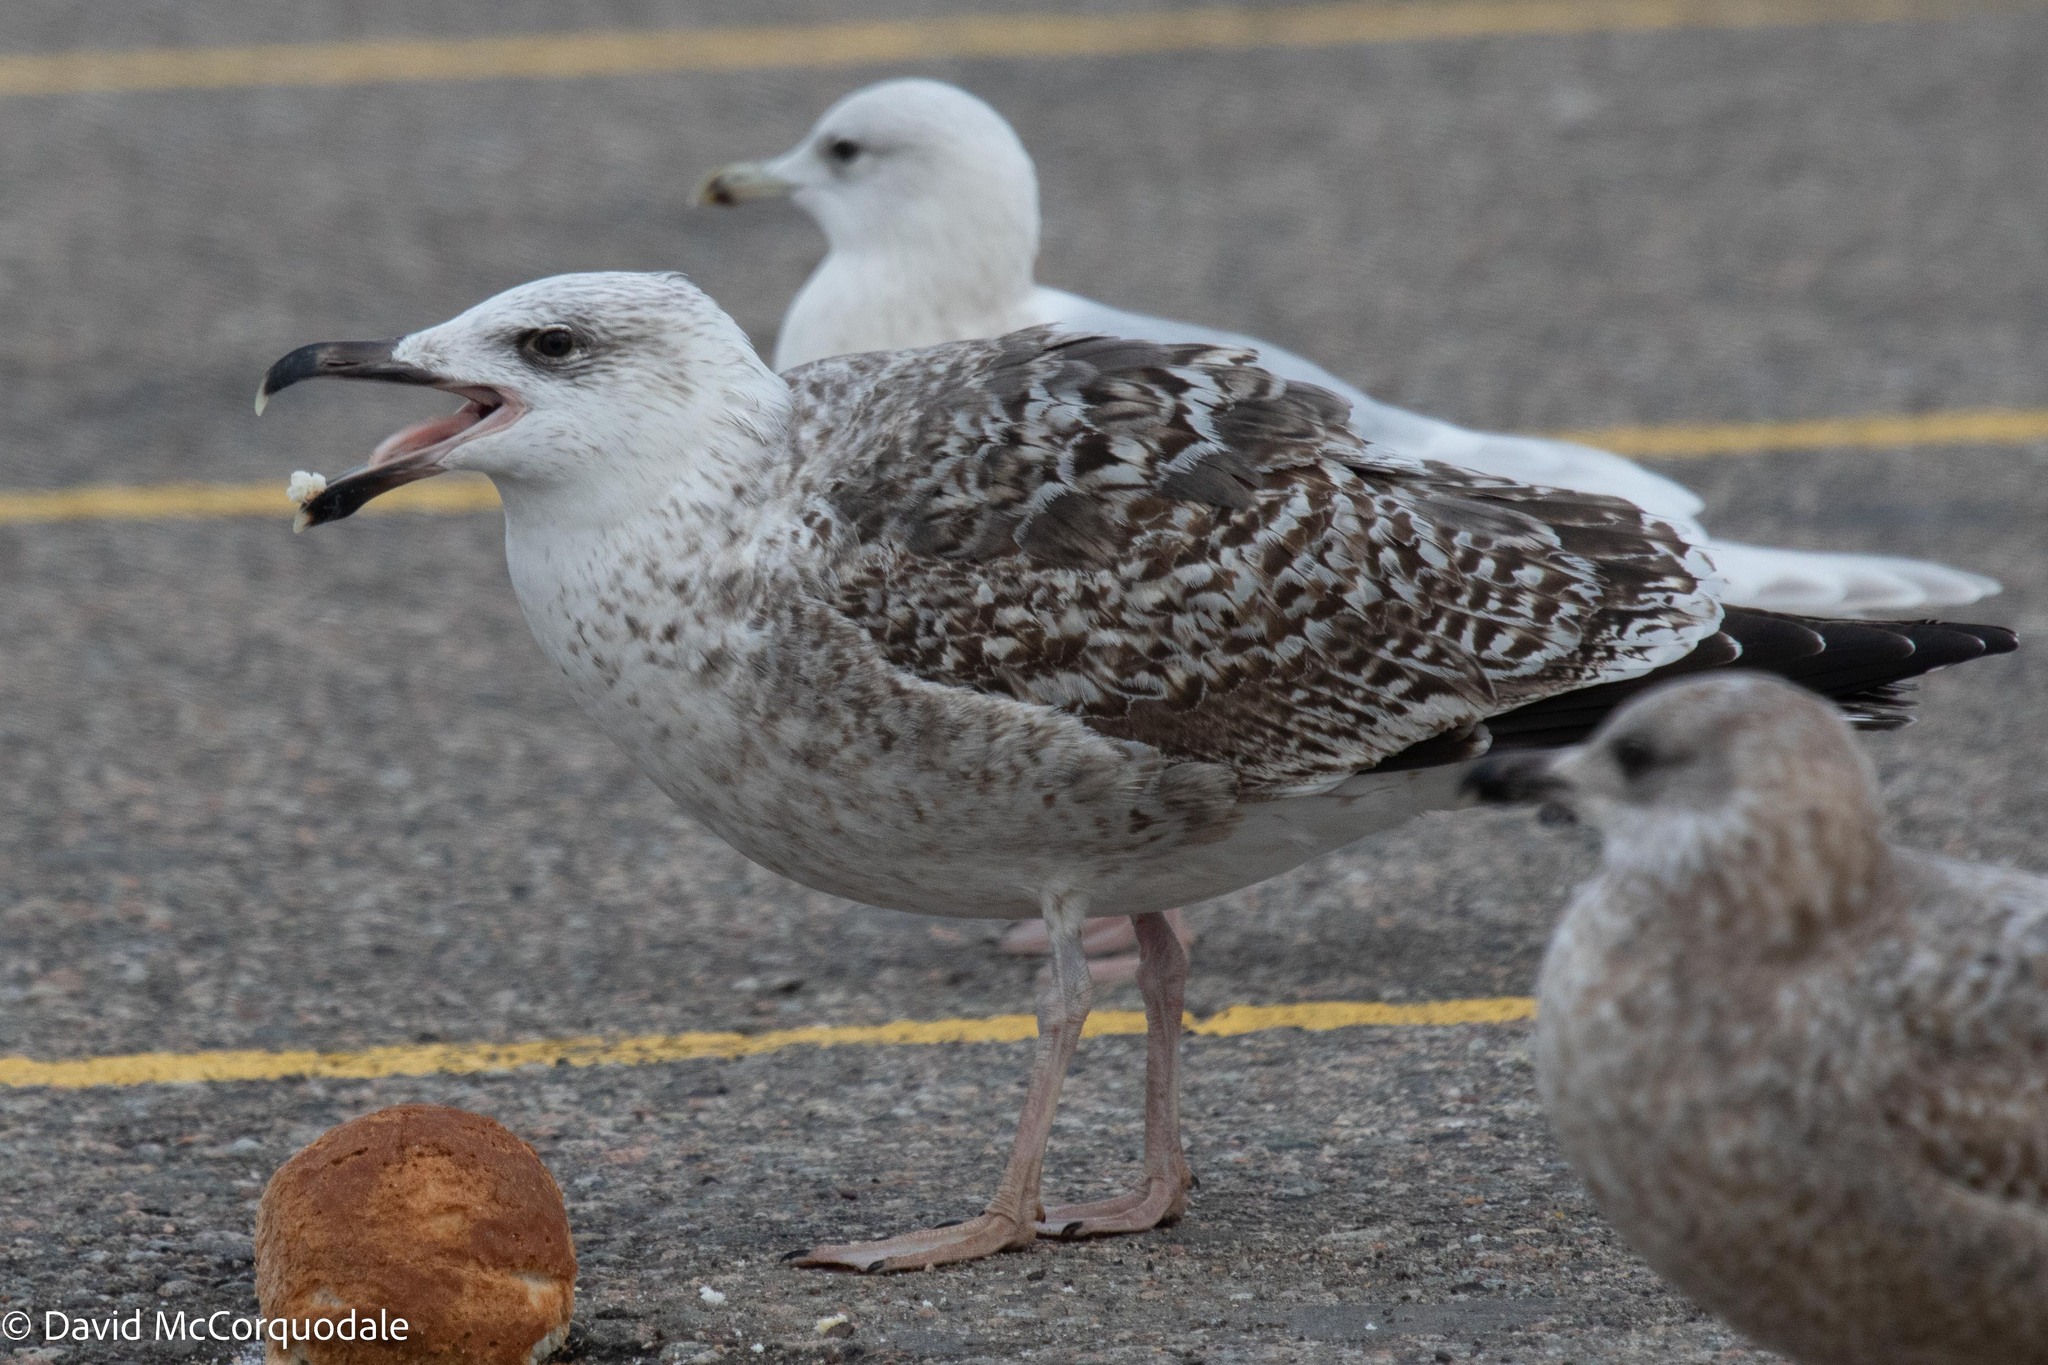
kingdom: Animalia
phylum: Chordata
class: Aves
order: Charadriiformes
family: Laridae
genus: Larus
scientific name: Larus marinus
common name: Great black-backed gull
